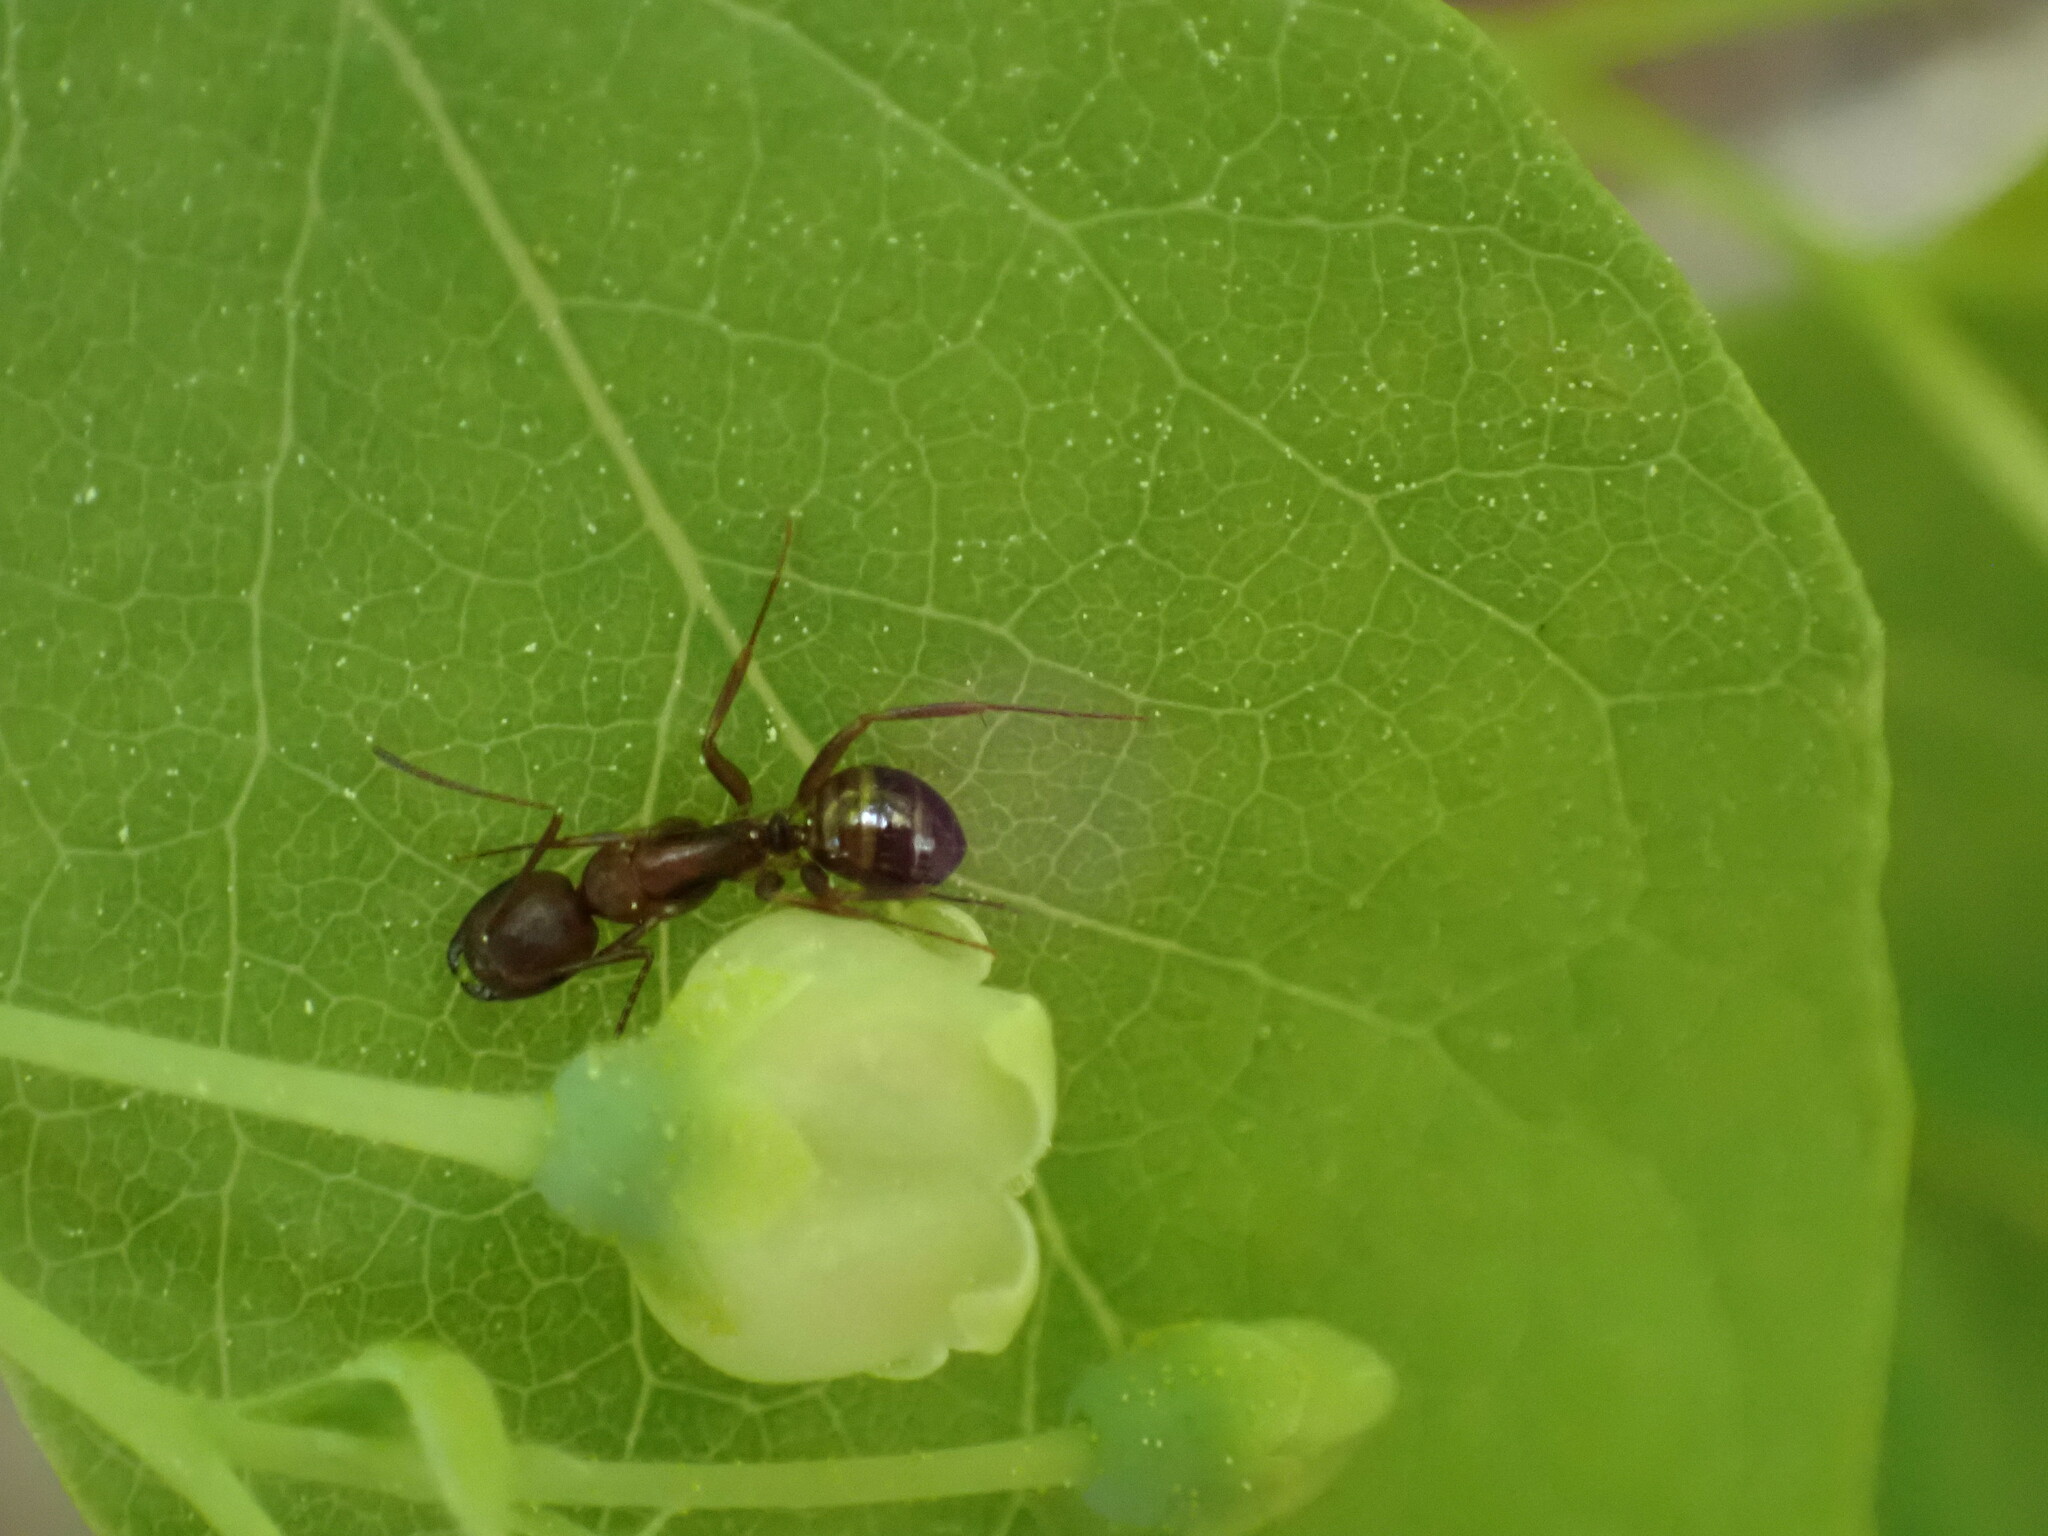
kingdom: Animalia
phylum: Arthropoda
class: Insecta
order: Hymenoptera
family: Formicidae
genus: Camponotus
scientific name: Camponotus subbarbatus
